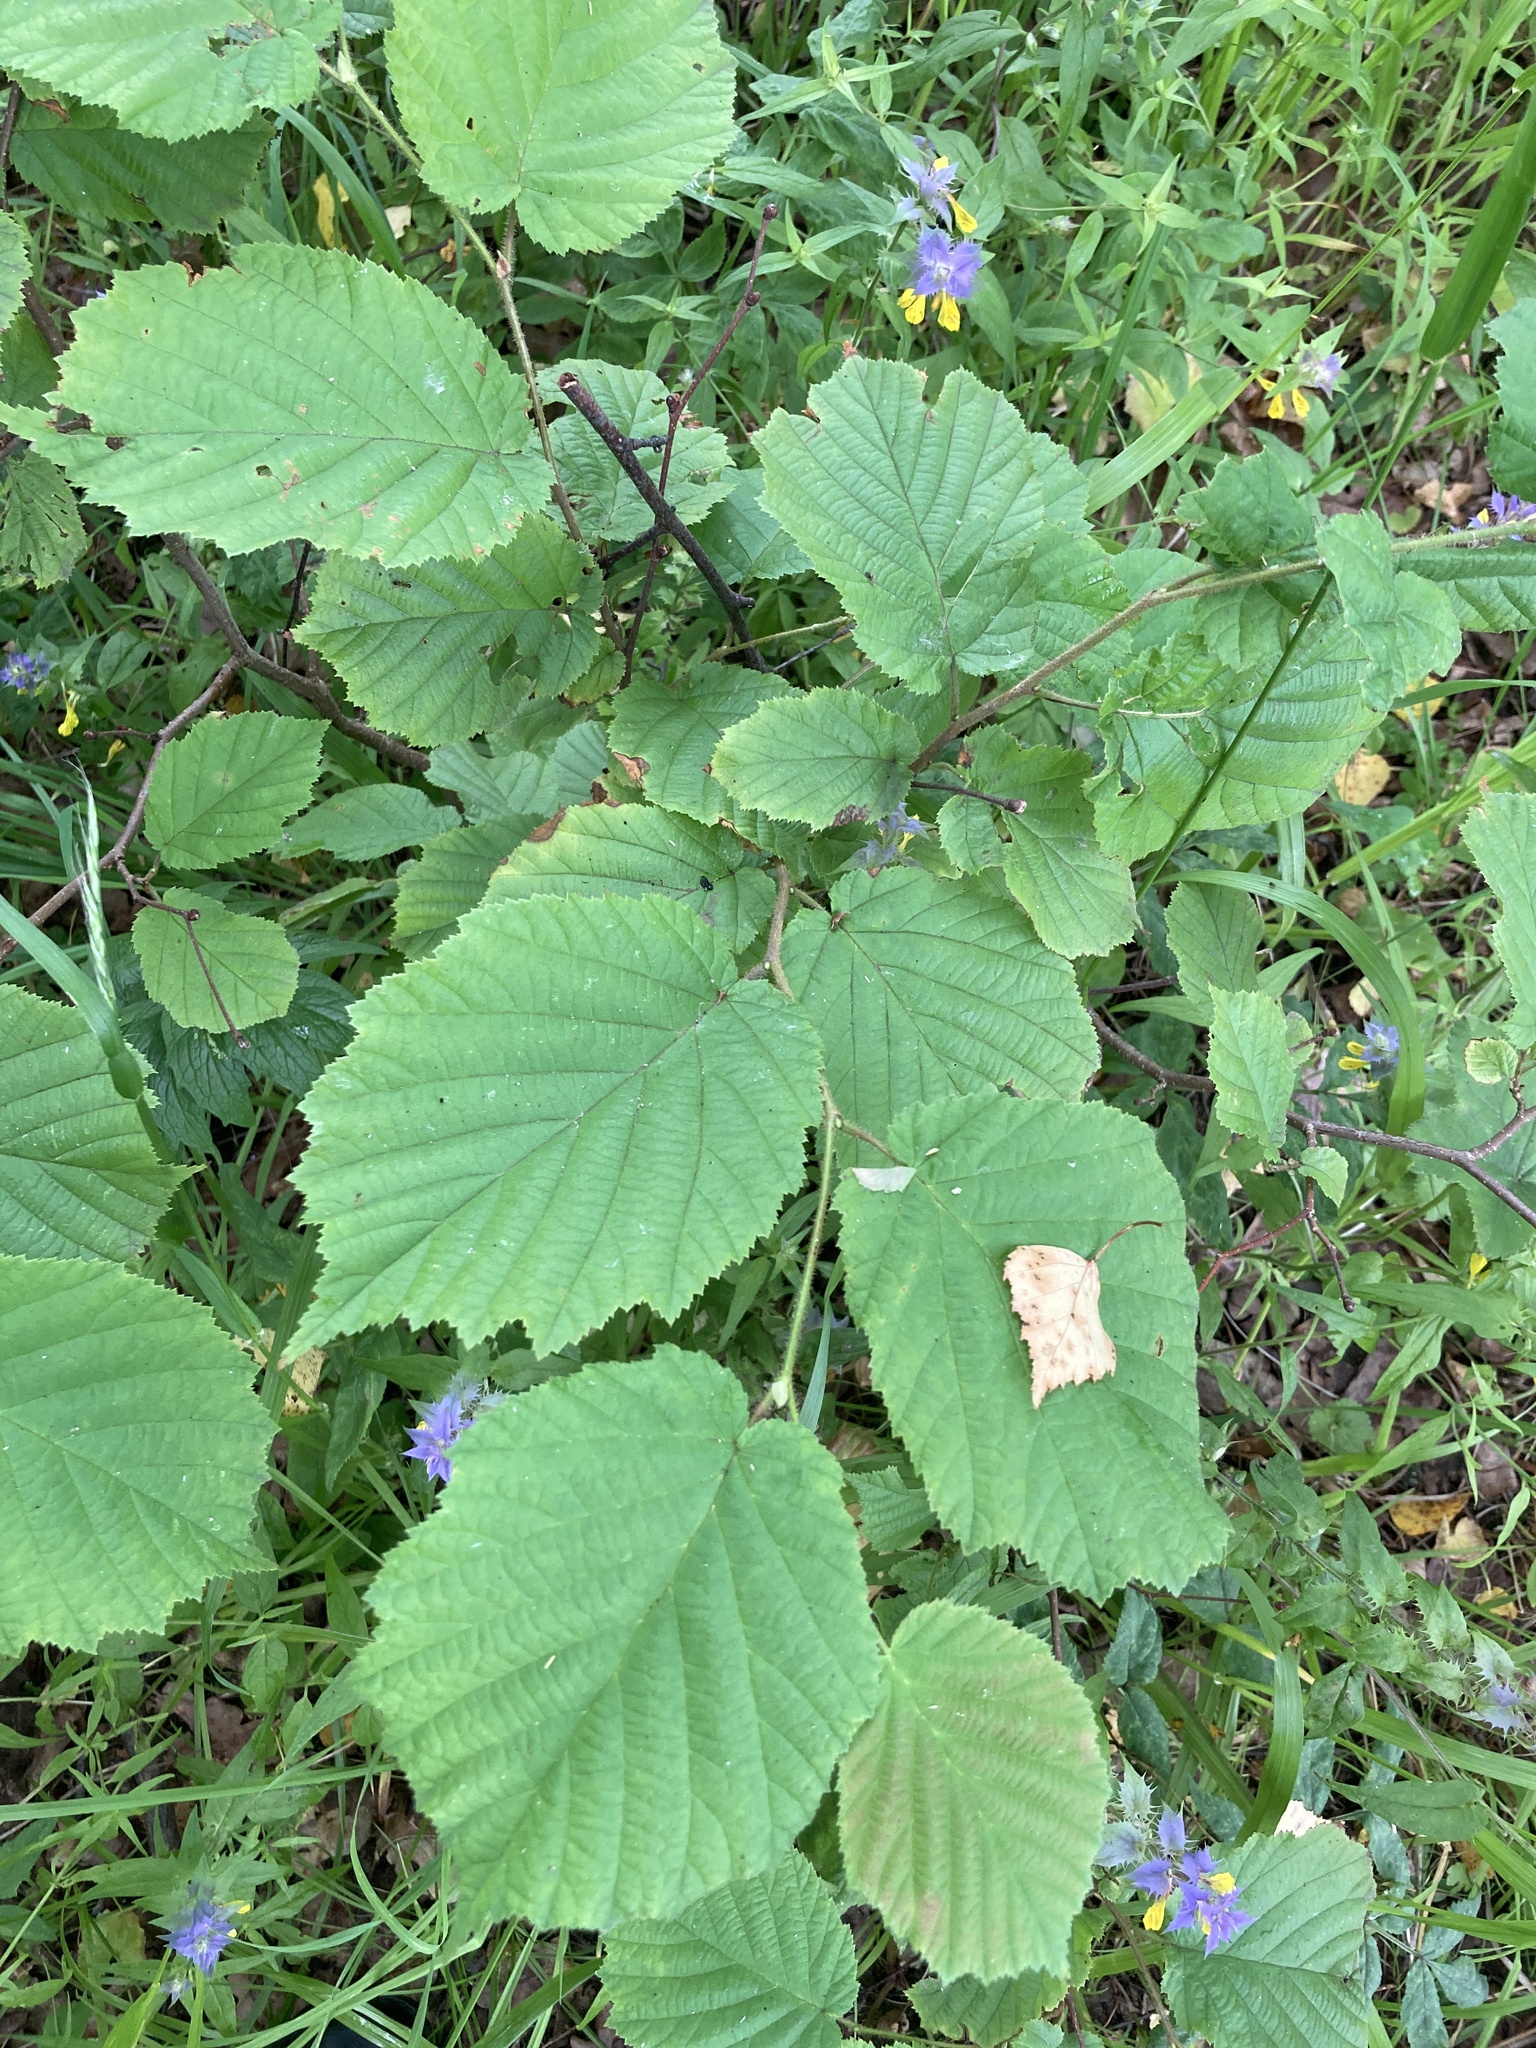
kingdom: Plantae
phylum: Tracheophyta
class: Magnoliopsida
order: Fagales
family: Betulaceae
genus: Corylus
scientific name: Corylus avellana
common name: European hazel
